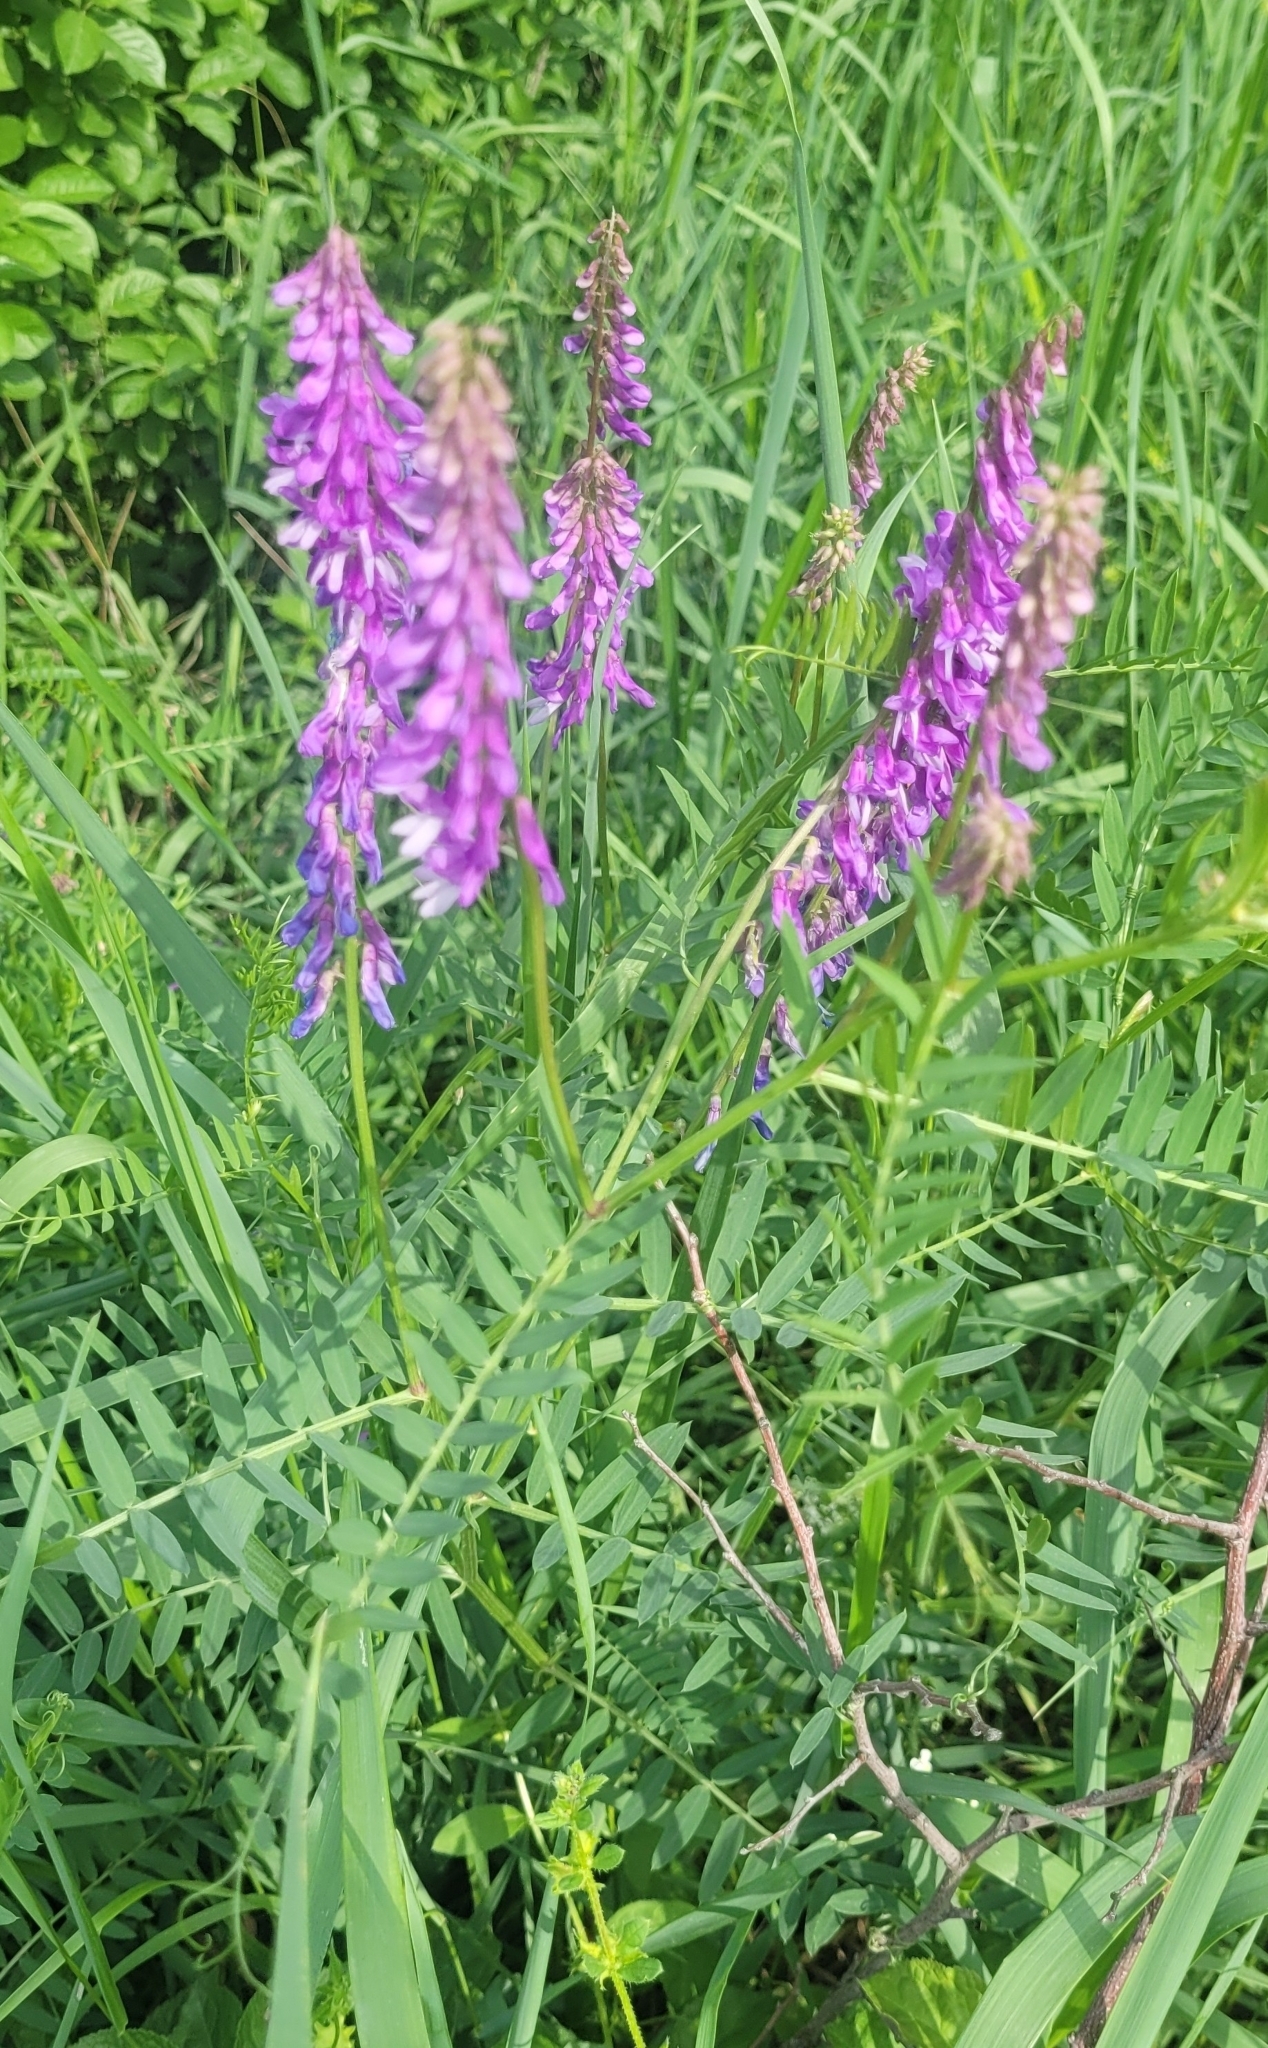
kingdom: Plantae
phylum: Tracheophyta
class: Magnoliopsida
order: Fabales
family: Fabaceae
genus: Vicia
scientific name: Vicia tenuifolia
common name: Fine-leaved vetch
